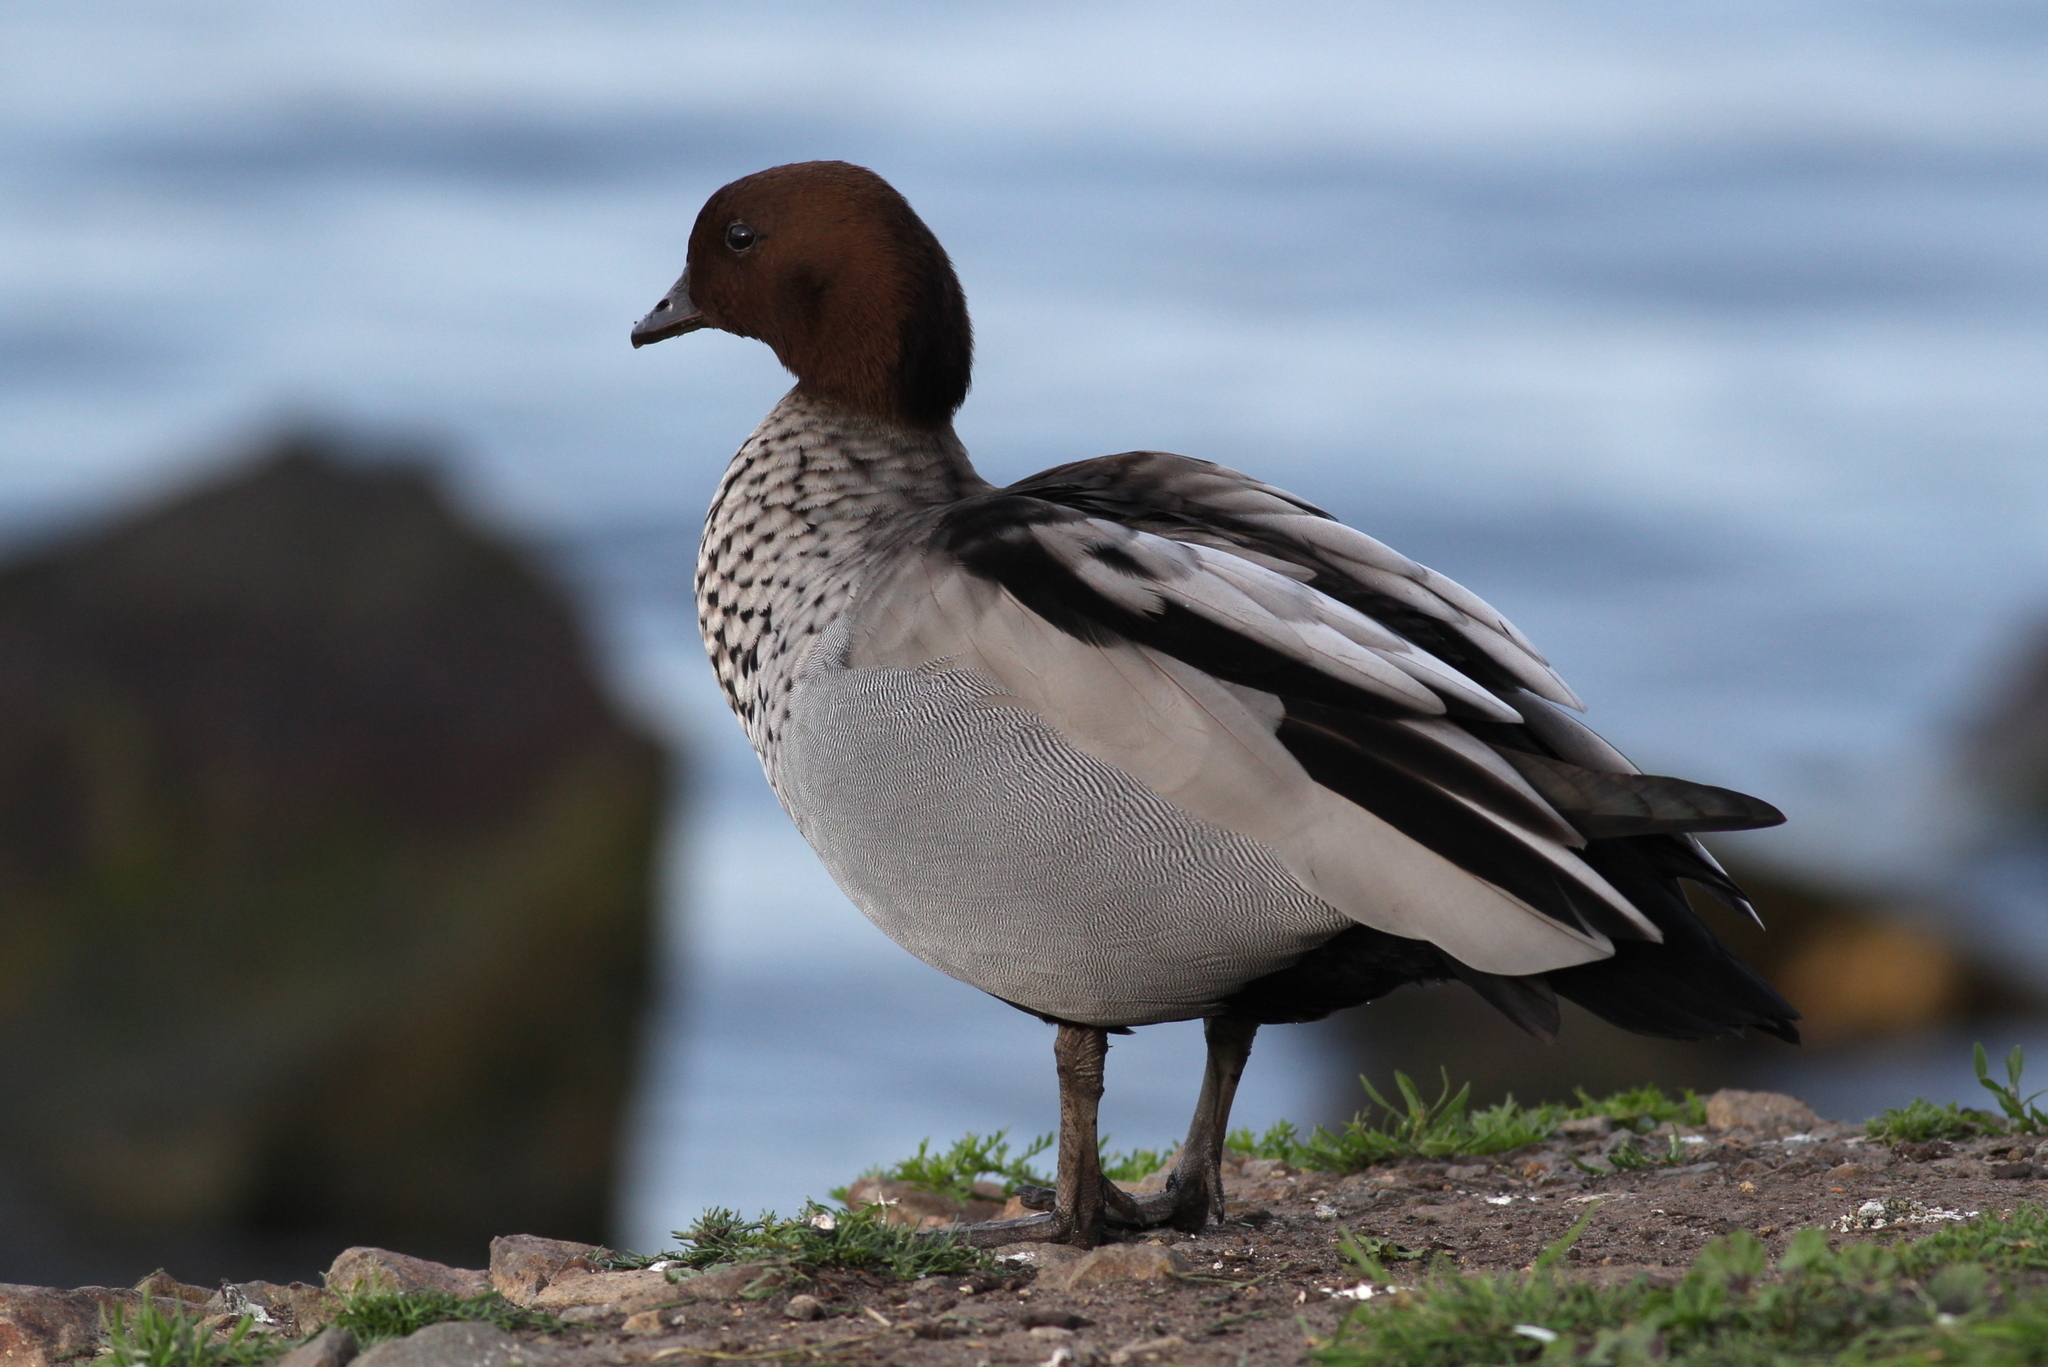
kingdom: Animalia
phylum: Chordata
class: Aves
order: Anseriformes
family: Anatidae
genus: Chenonetta
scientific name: Chenonetta jubata
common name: Maned duck
